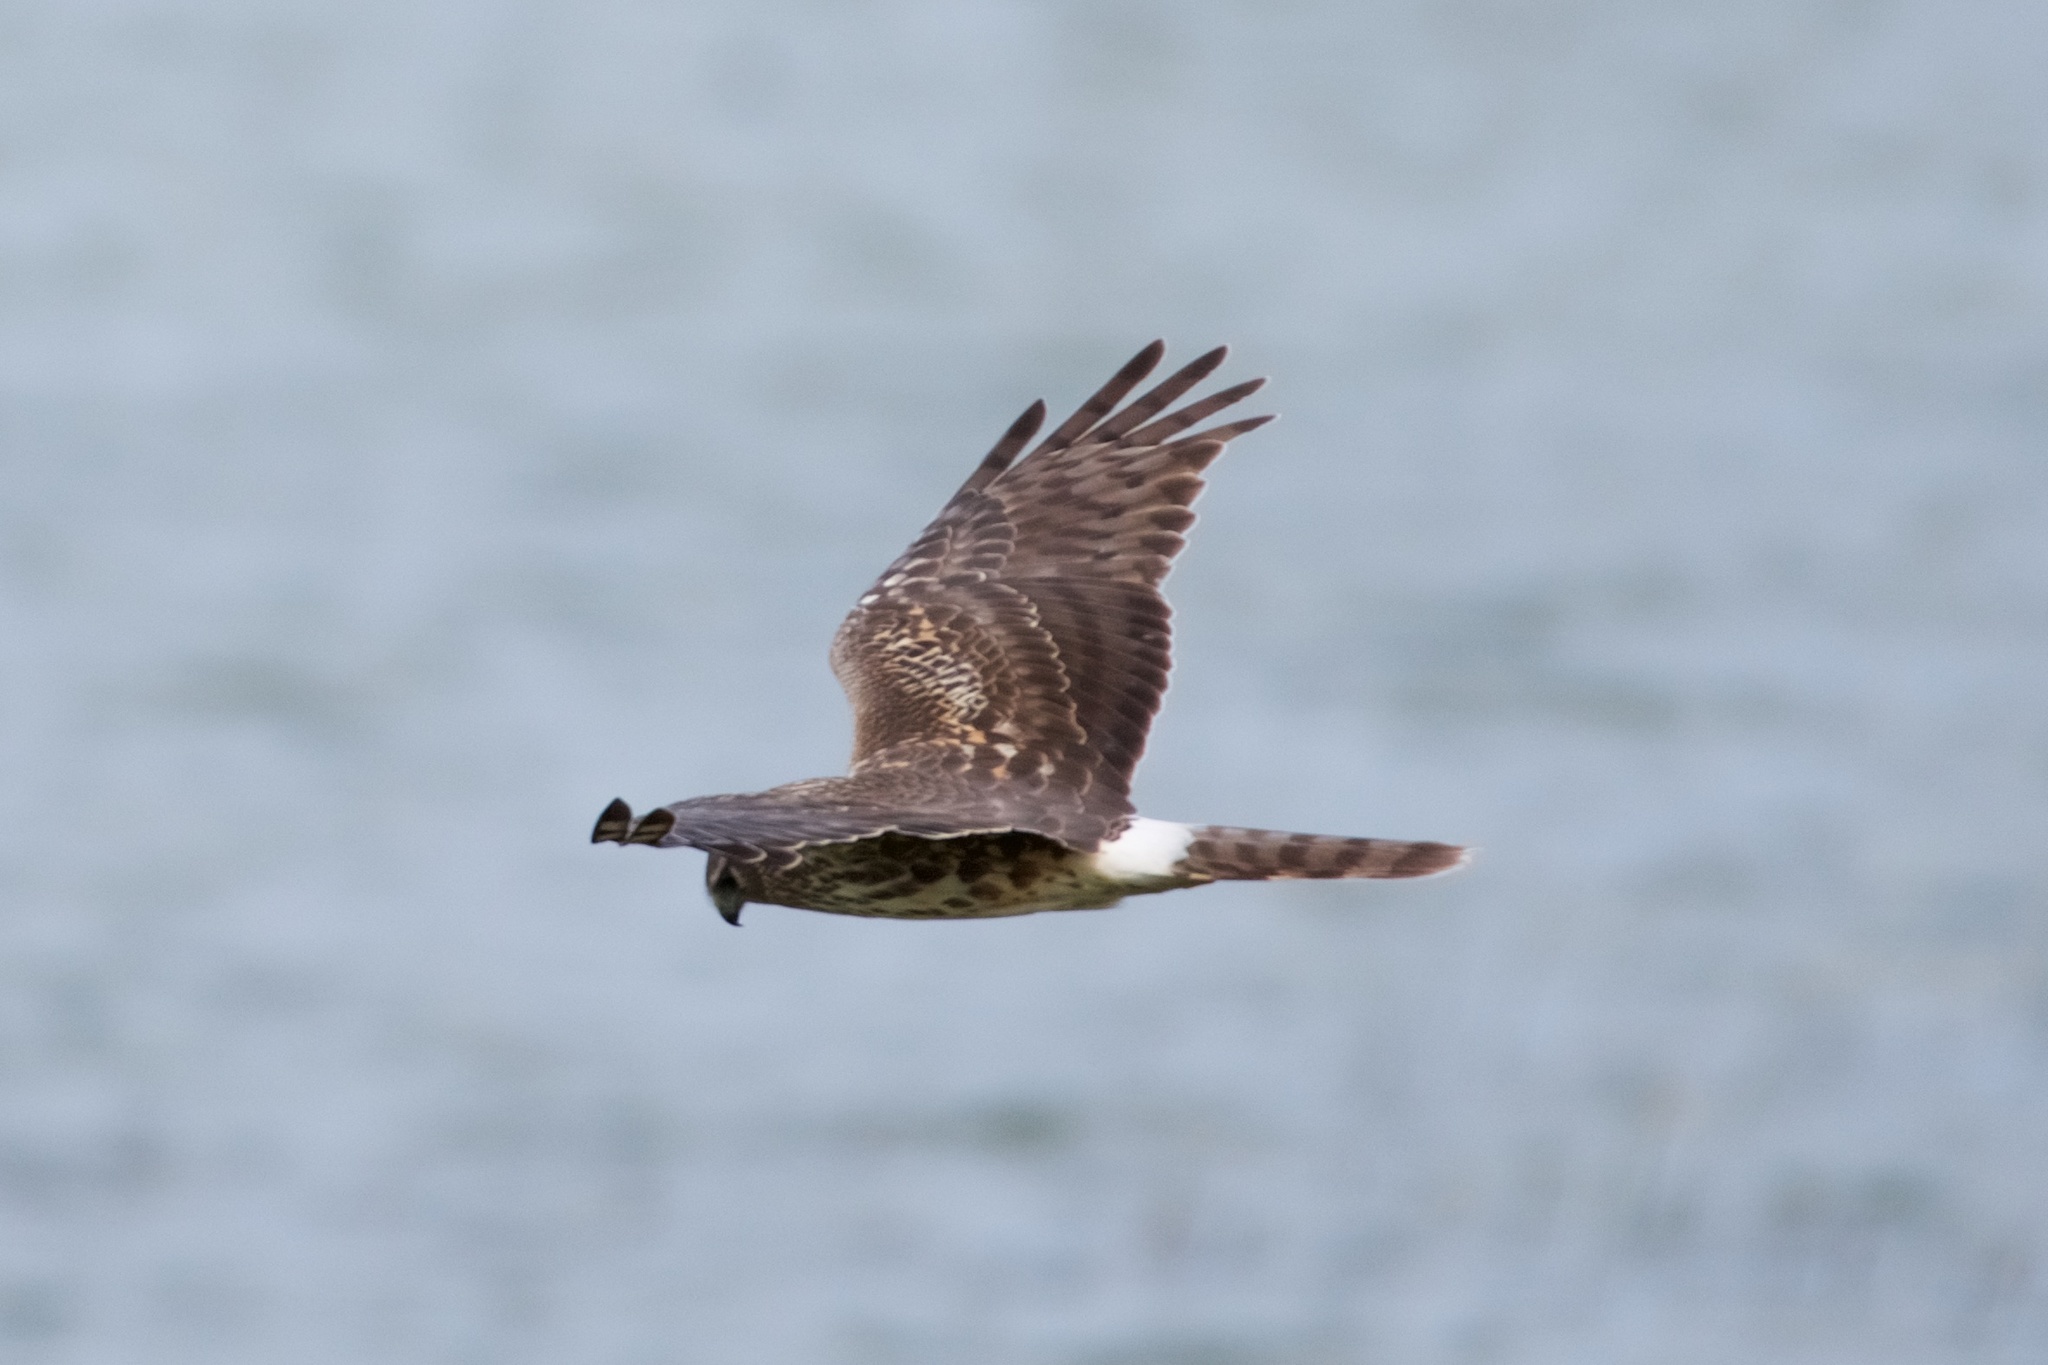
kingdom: Animalia
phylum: Chordata
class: Aves
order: Accipitriformes
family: Accipitridae
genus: Circus
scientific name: Circus cyaneus
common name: Hen harrier
